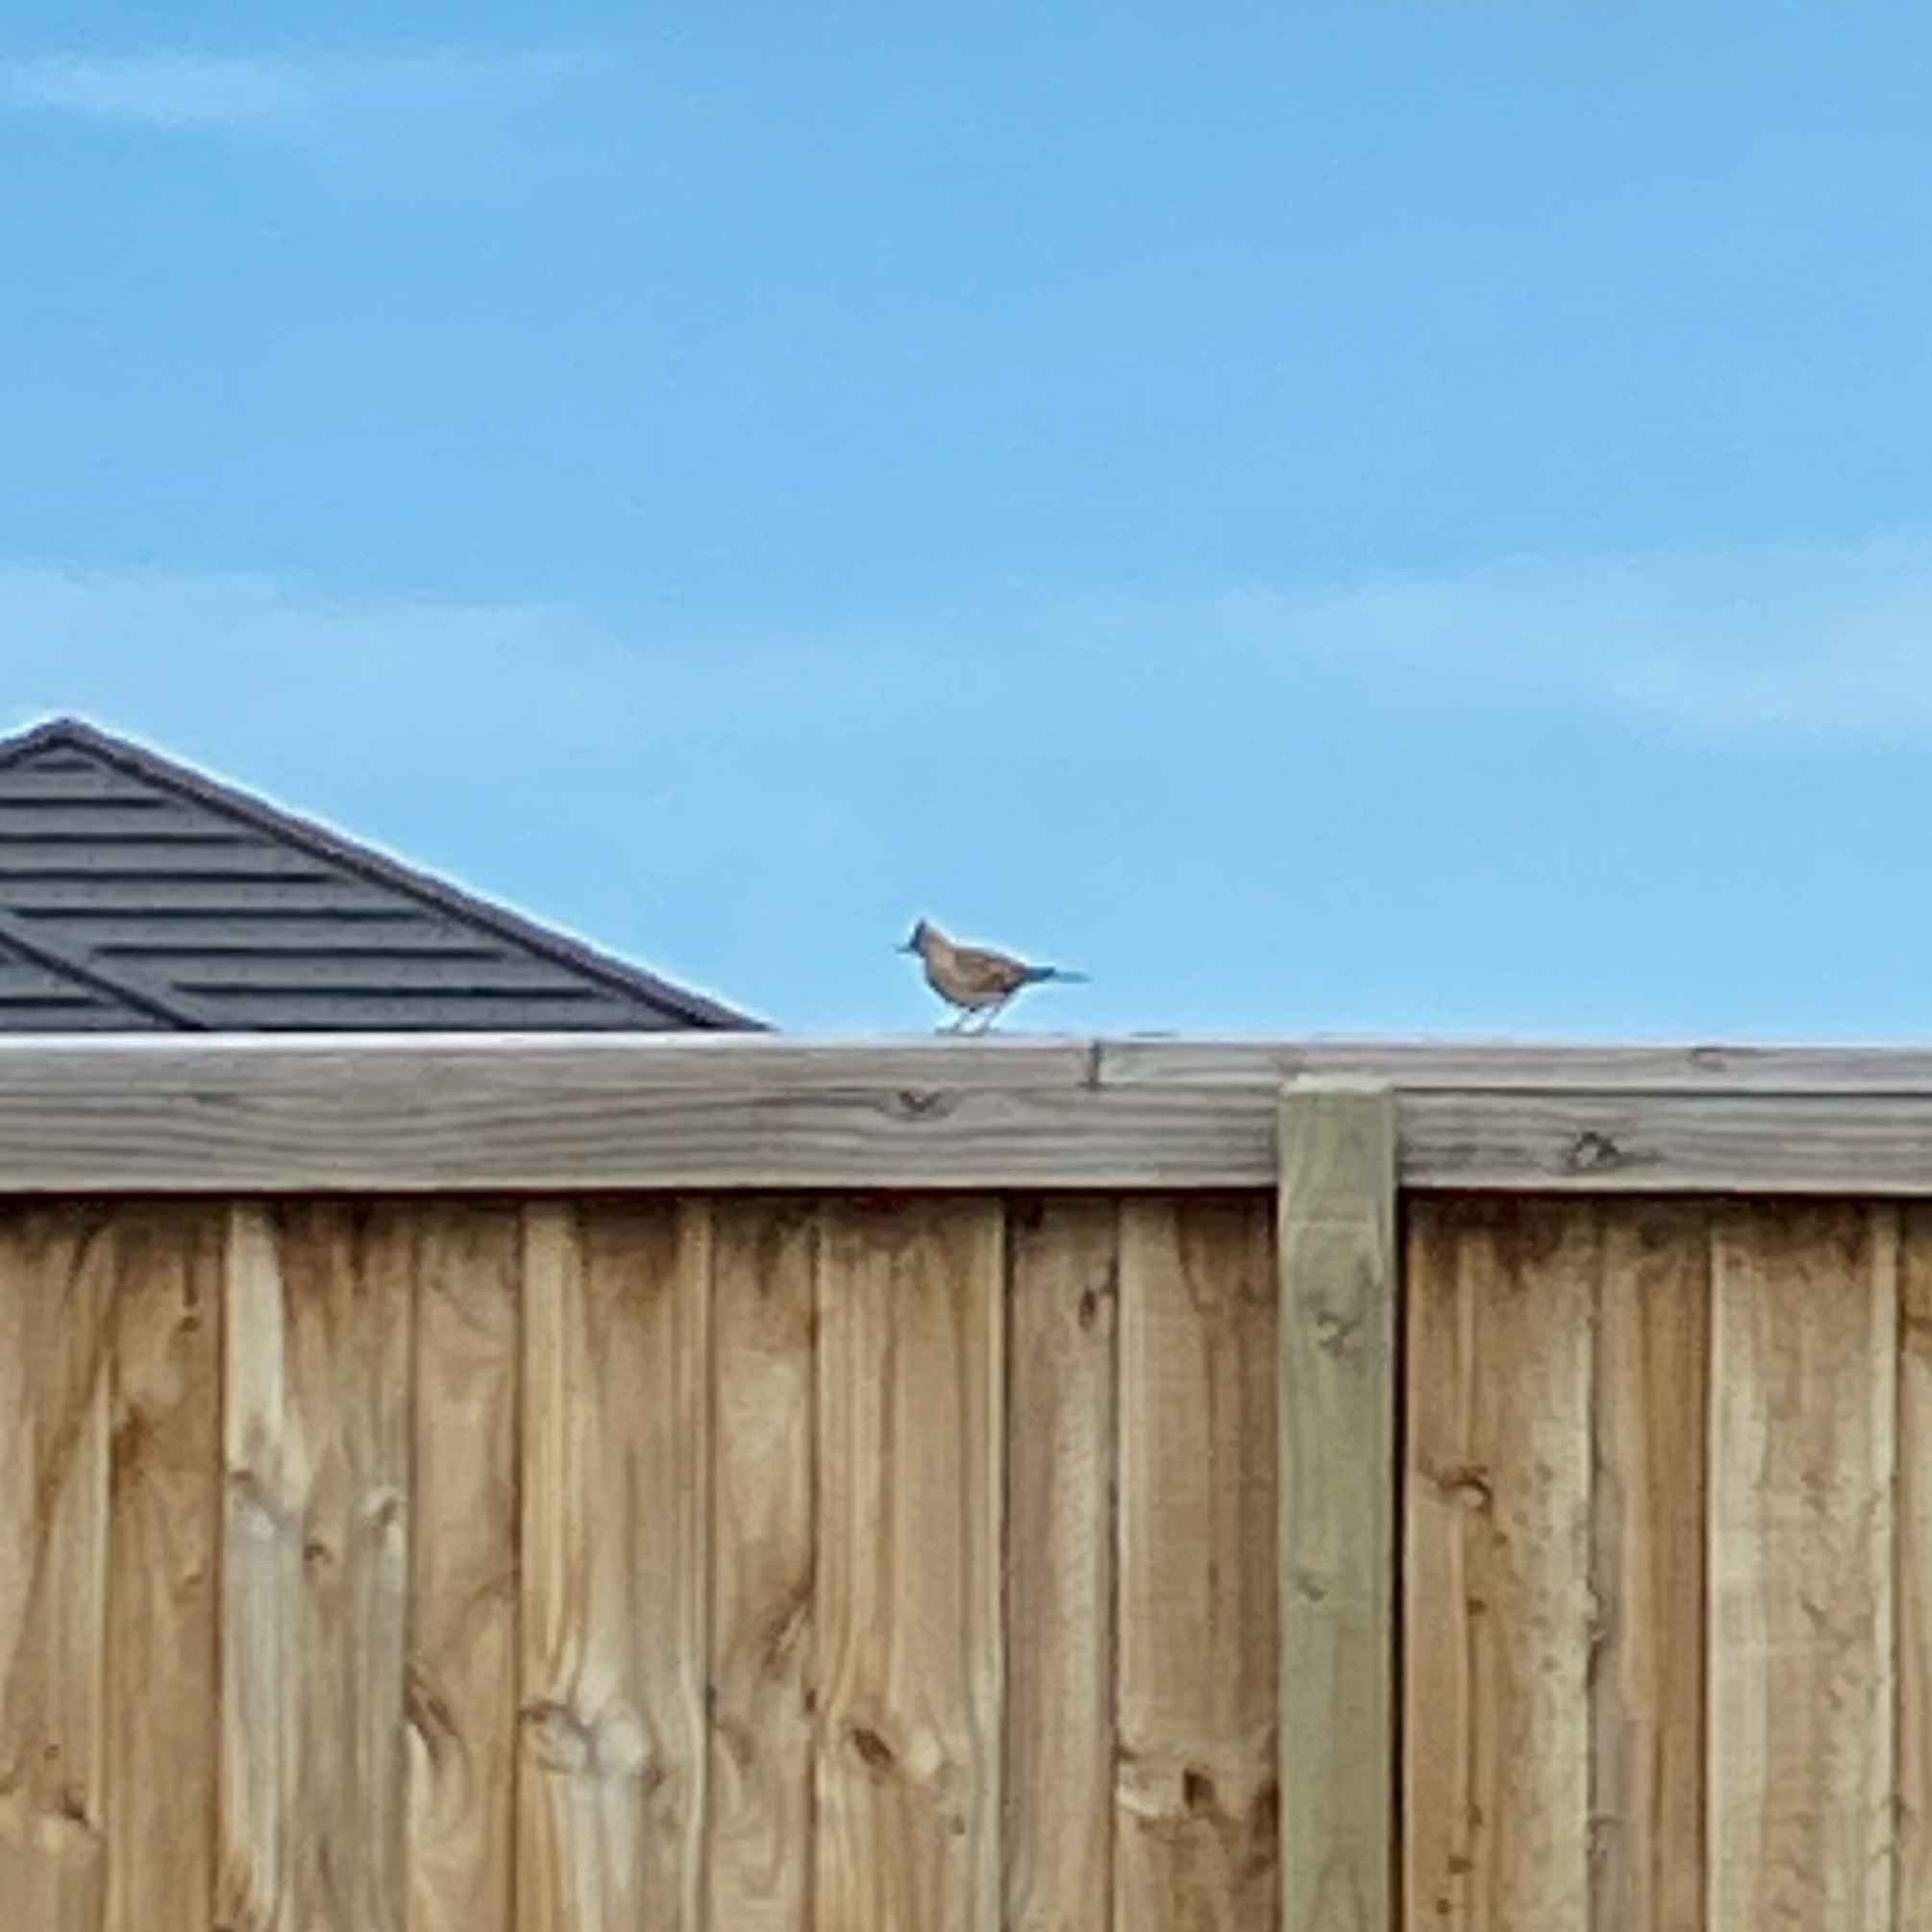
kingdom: Animalia
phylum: Chordata
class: Aves
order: Passeriformes
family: Alaudidae
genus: Alauda
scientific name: Alauda arvensis
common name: Eurasian skylark
